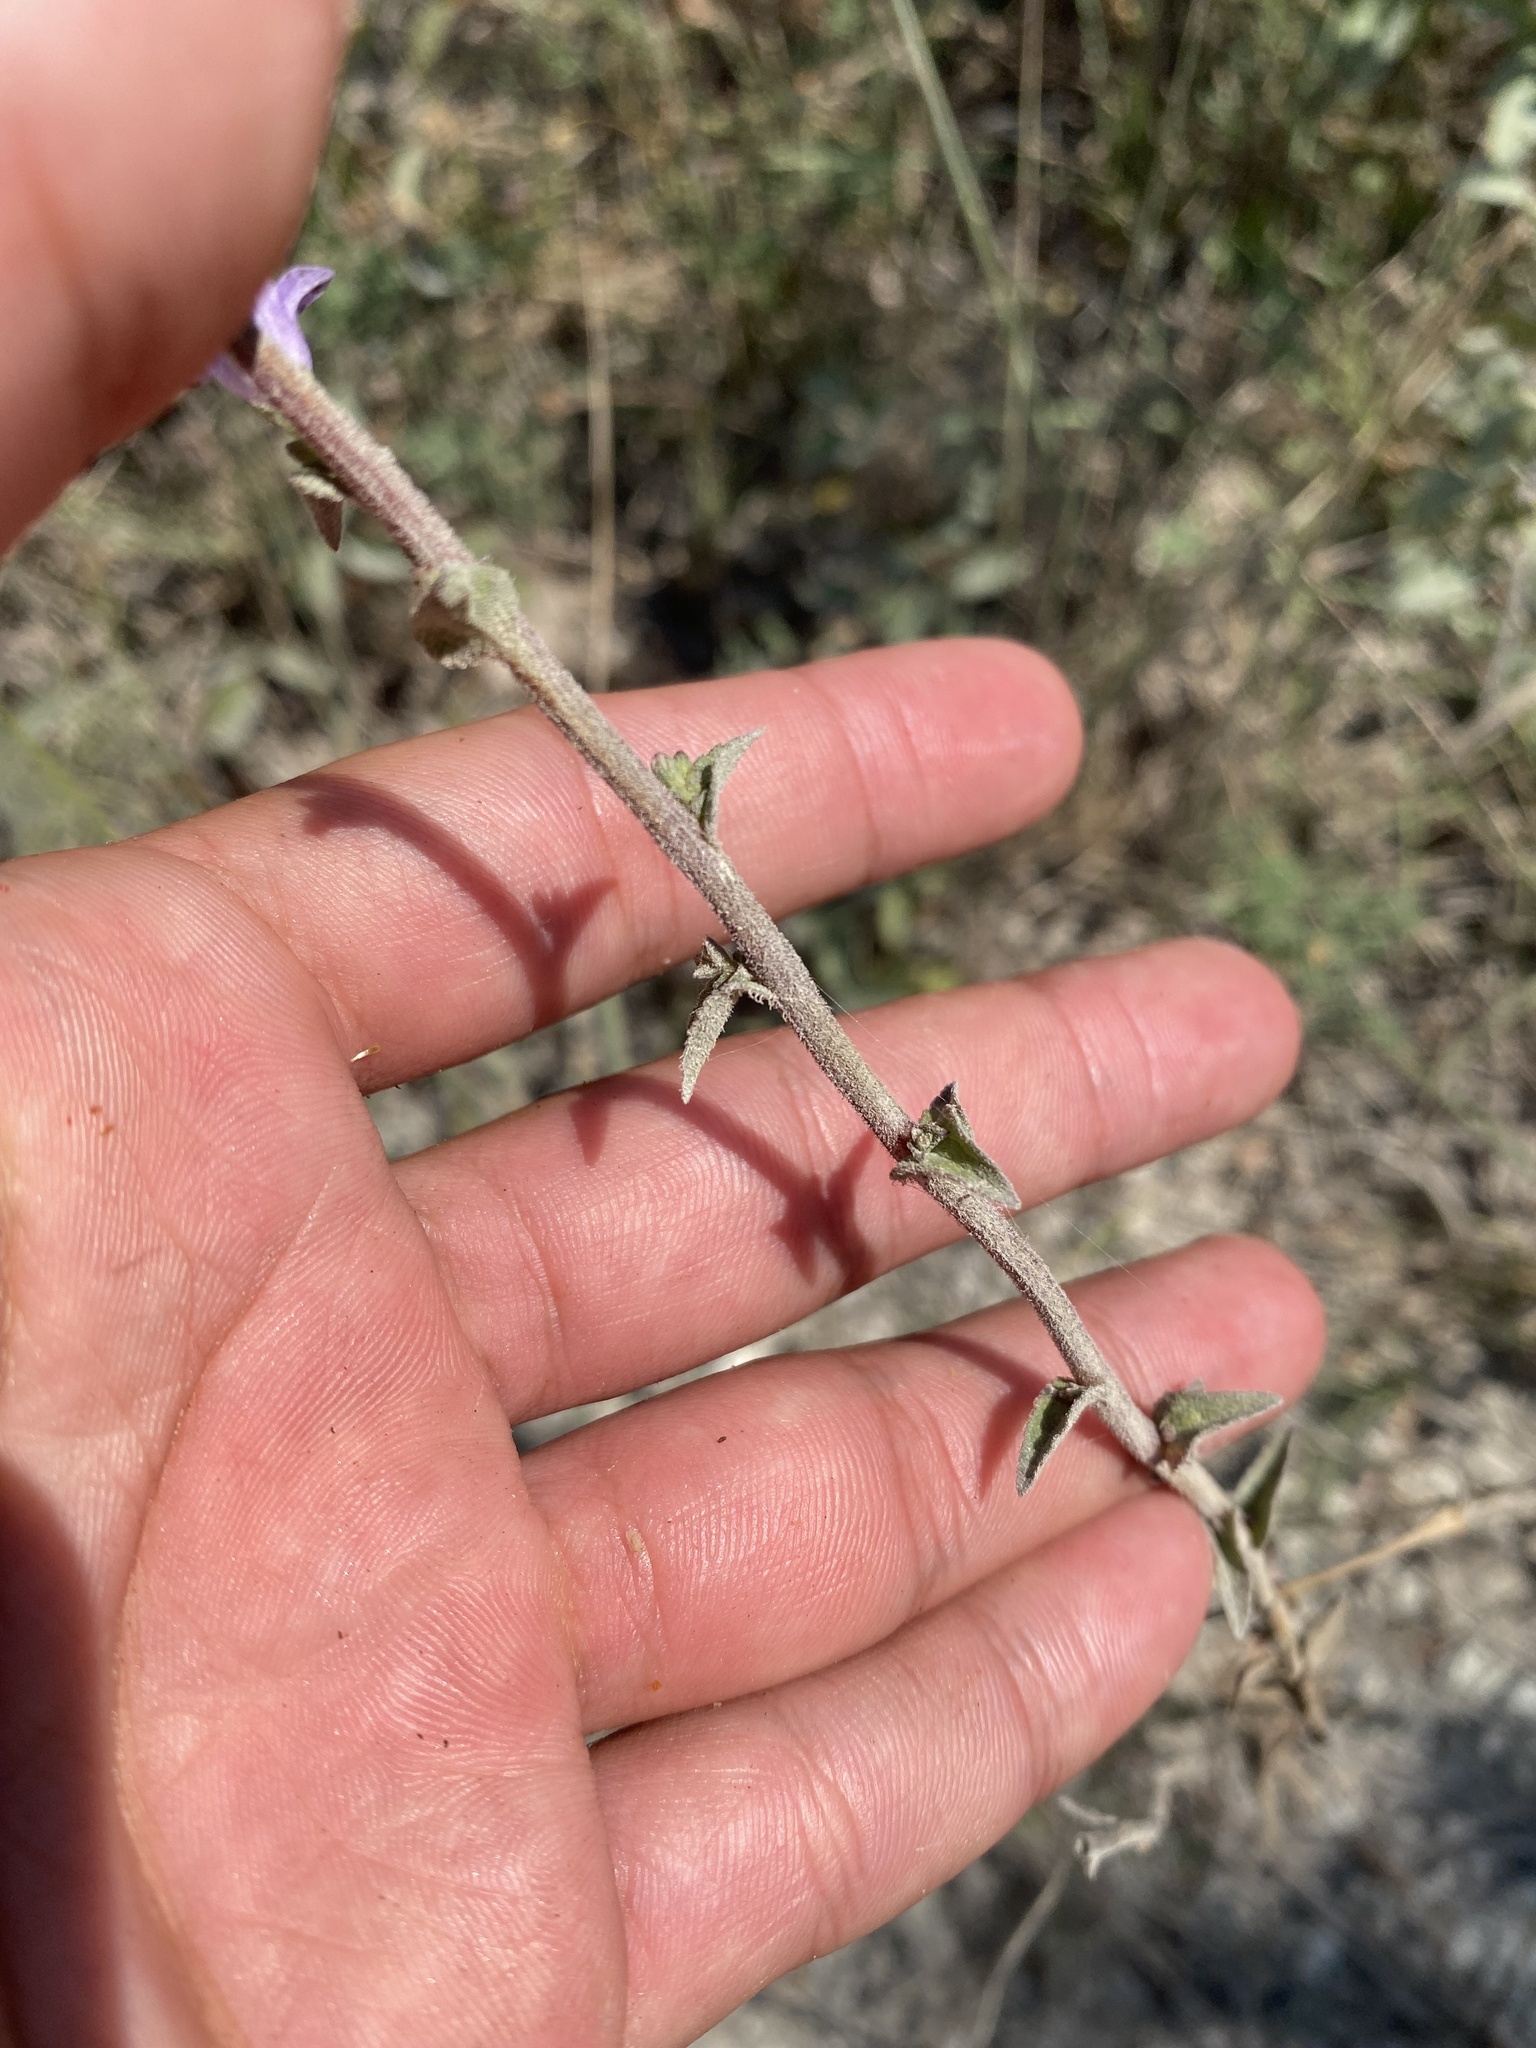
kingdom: Plantae
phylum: Tracheophyta
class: Magnoliopsida
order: Asterales
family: Campanulaceae
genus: Campanula
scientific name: Campanula bononiensis
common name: Pale bellflower
